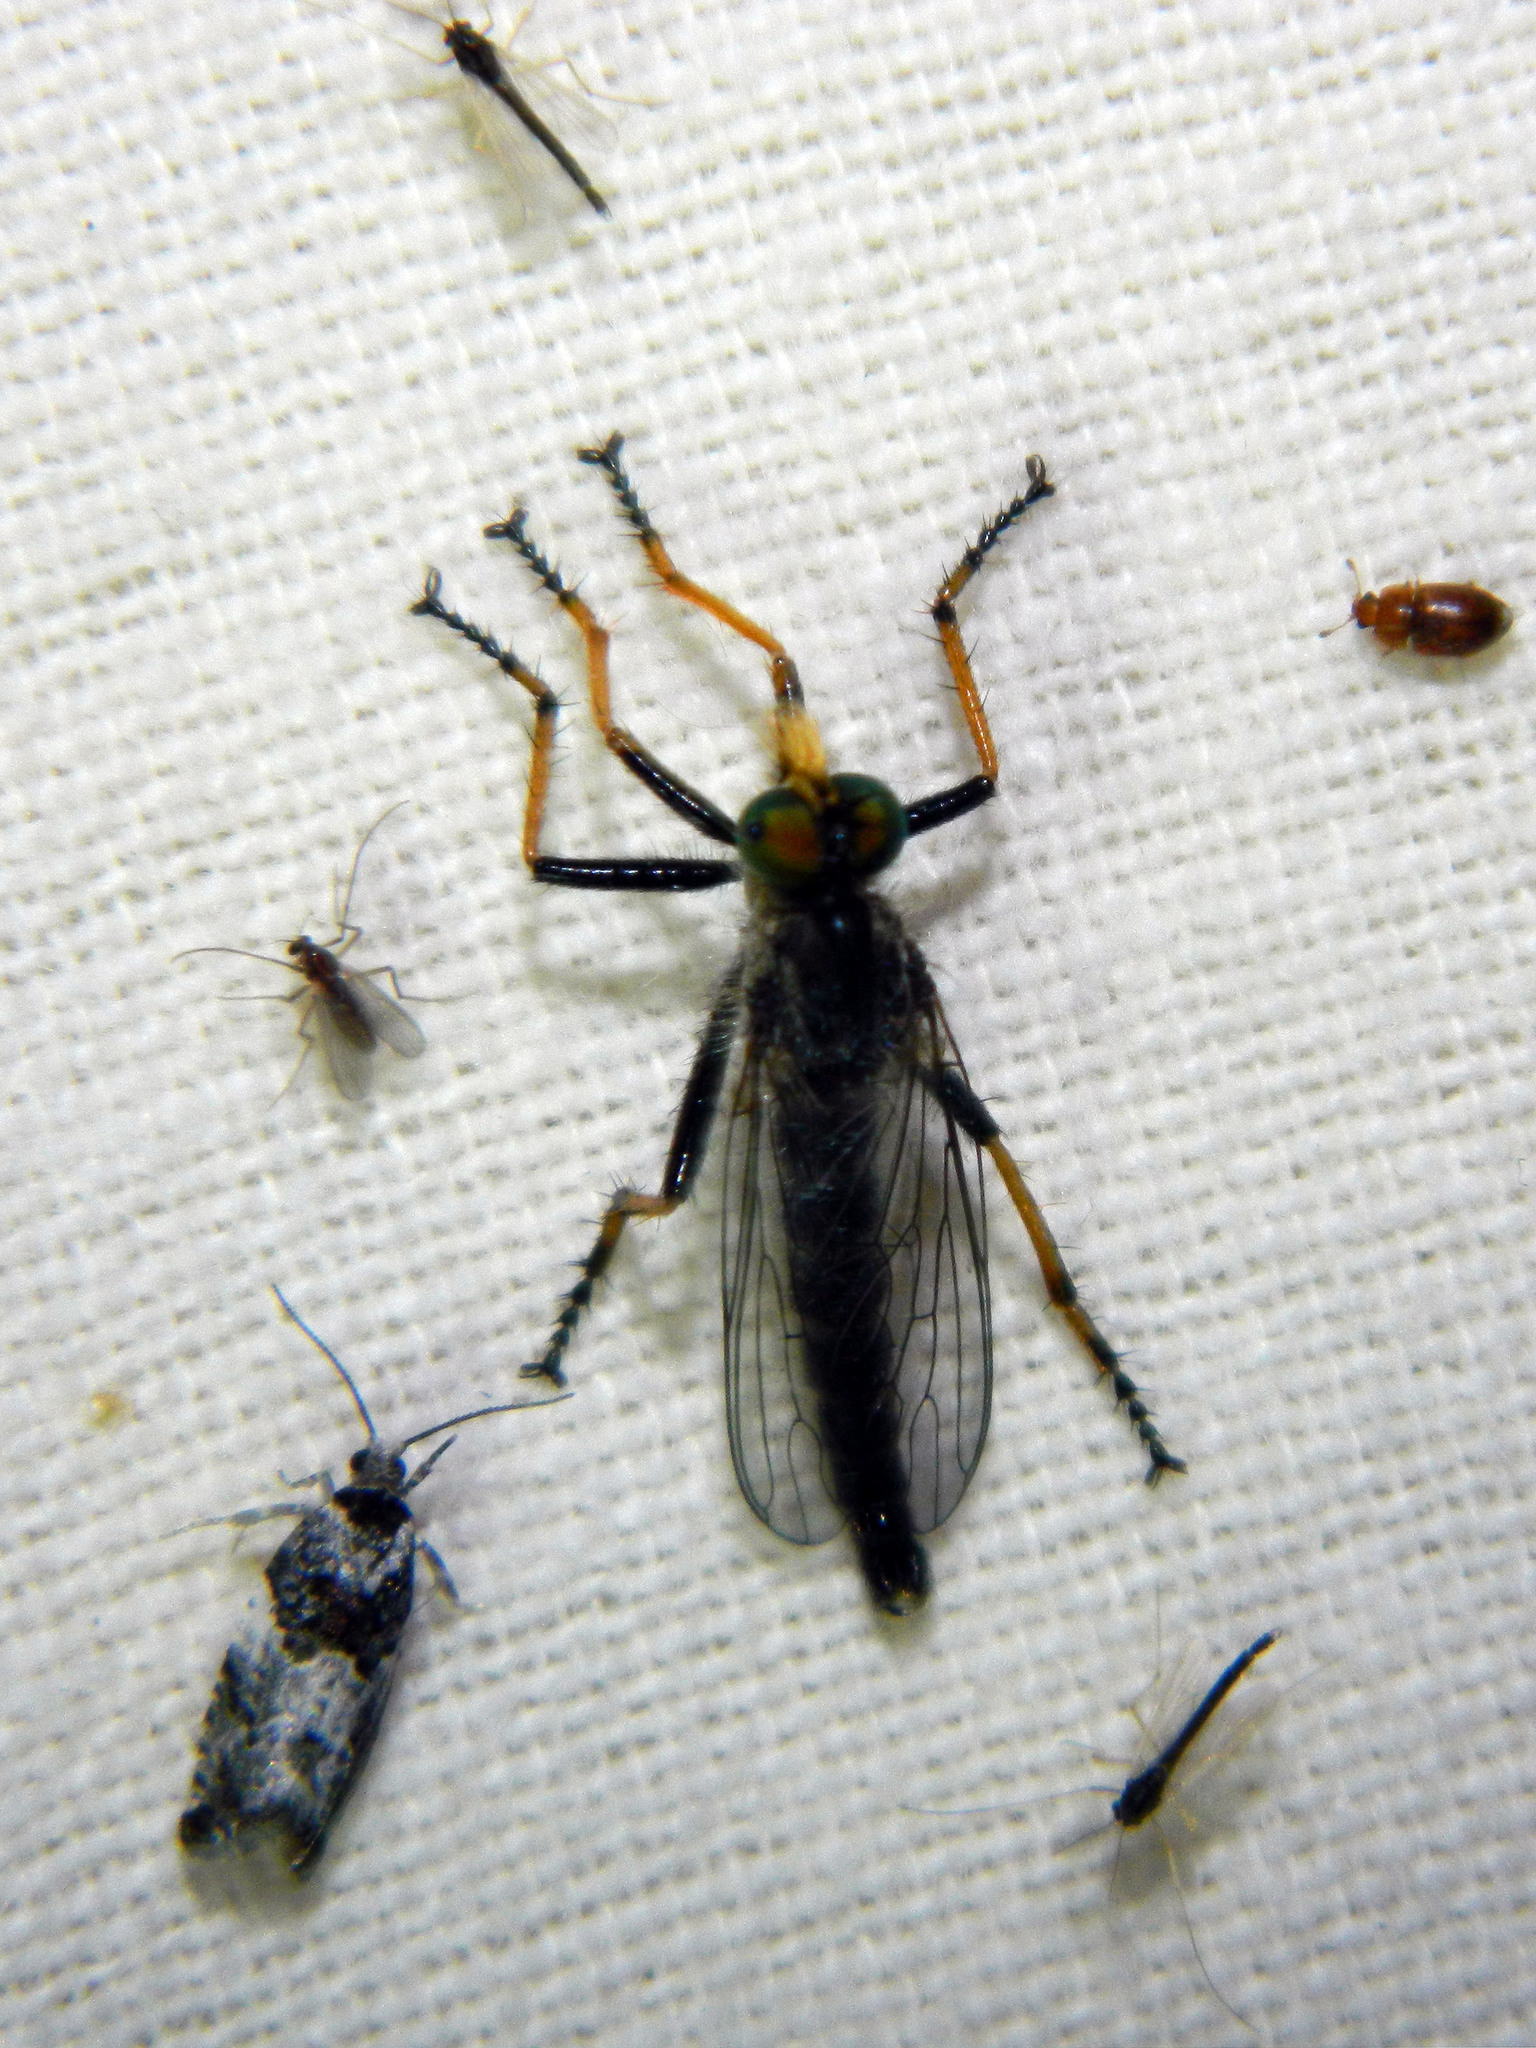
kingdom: Animalia
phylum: Arthropoda
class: Insecta
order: Diptera
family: Asilidae
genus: Neoitamus
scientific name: Neoitamus orphne
